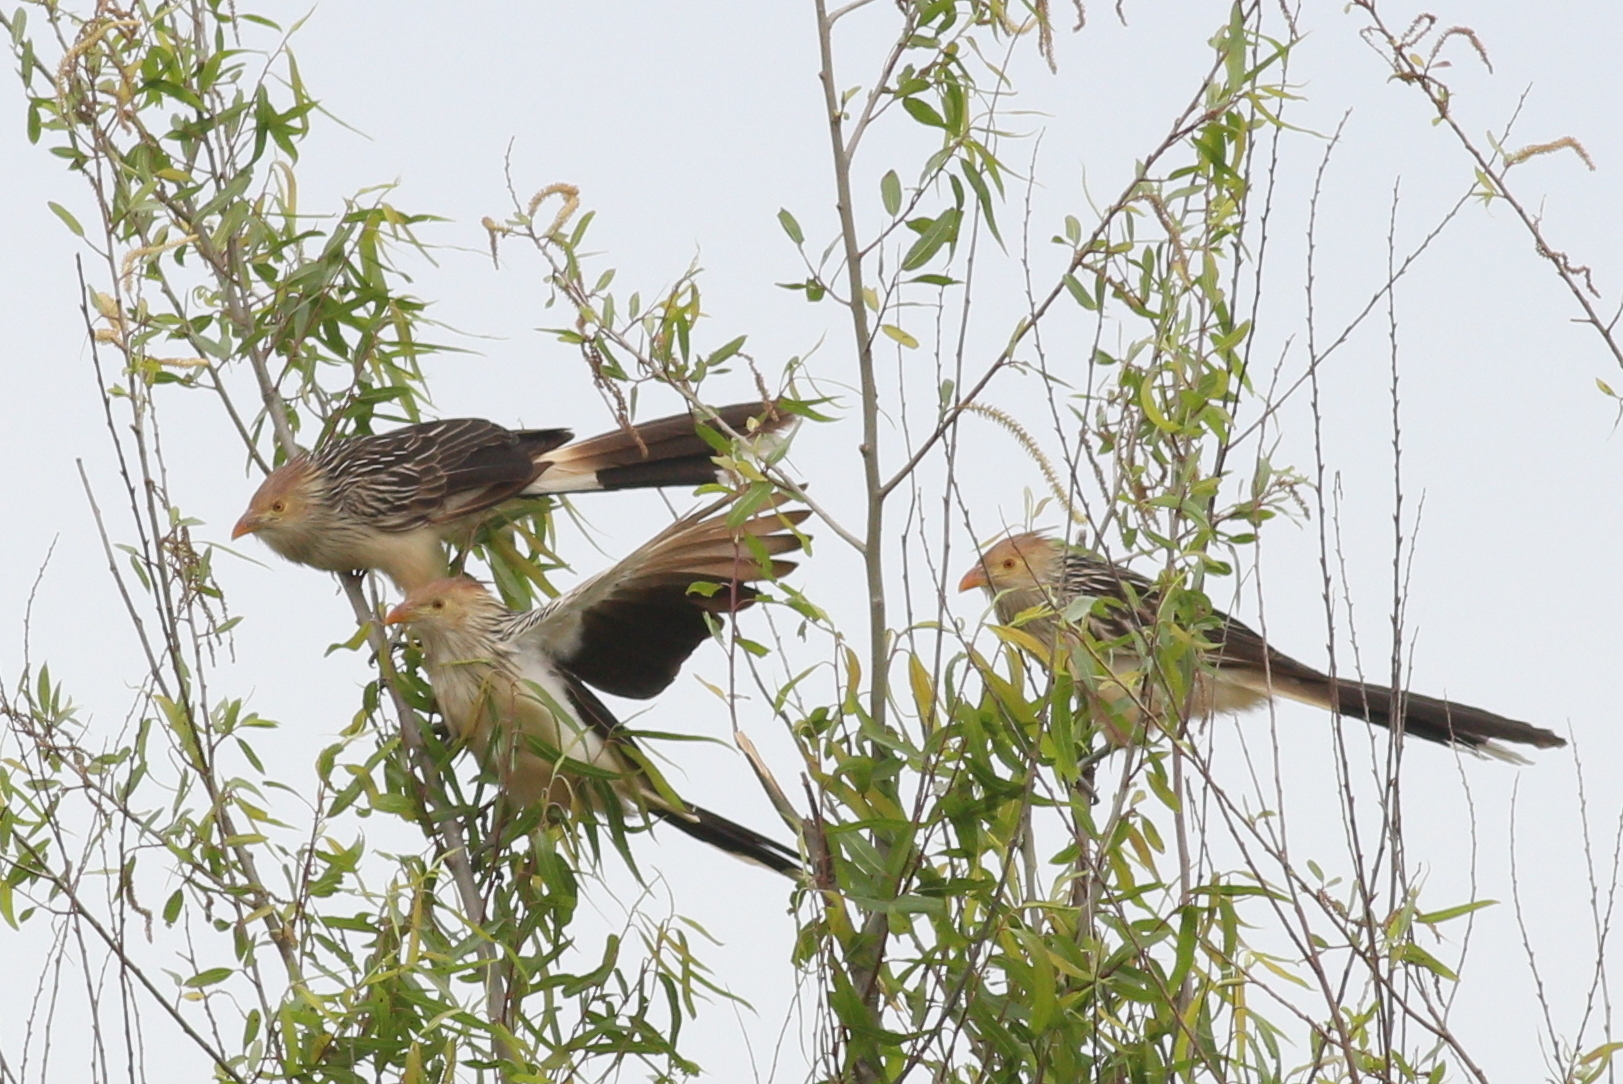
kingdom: Animalia
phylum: Chordata
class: Aves
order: Cuculiformes
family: Cuculidae
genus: Guira
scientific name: Guira guira
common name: Guira cuckoo
